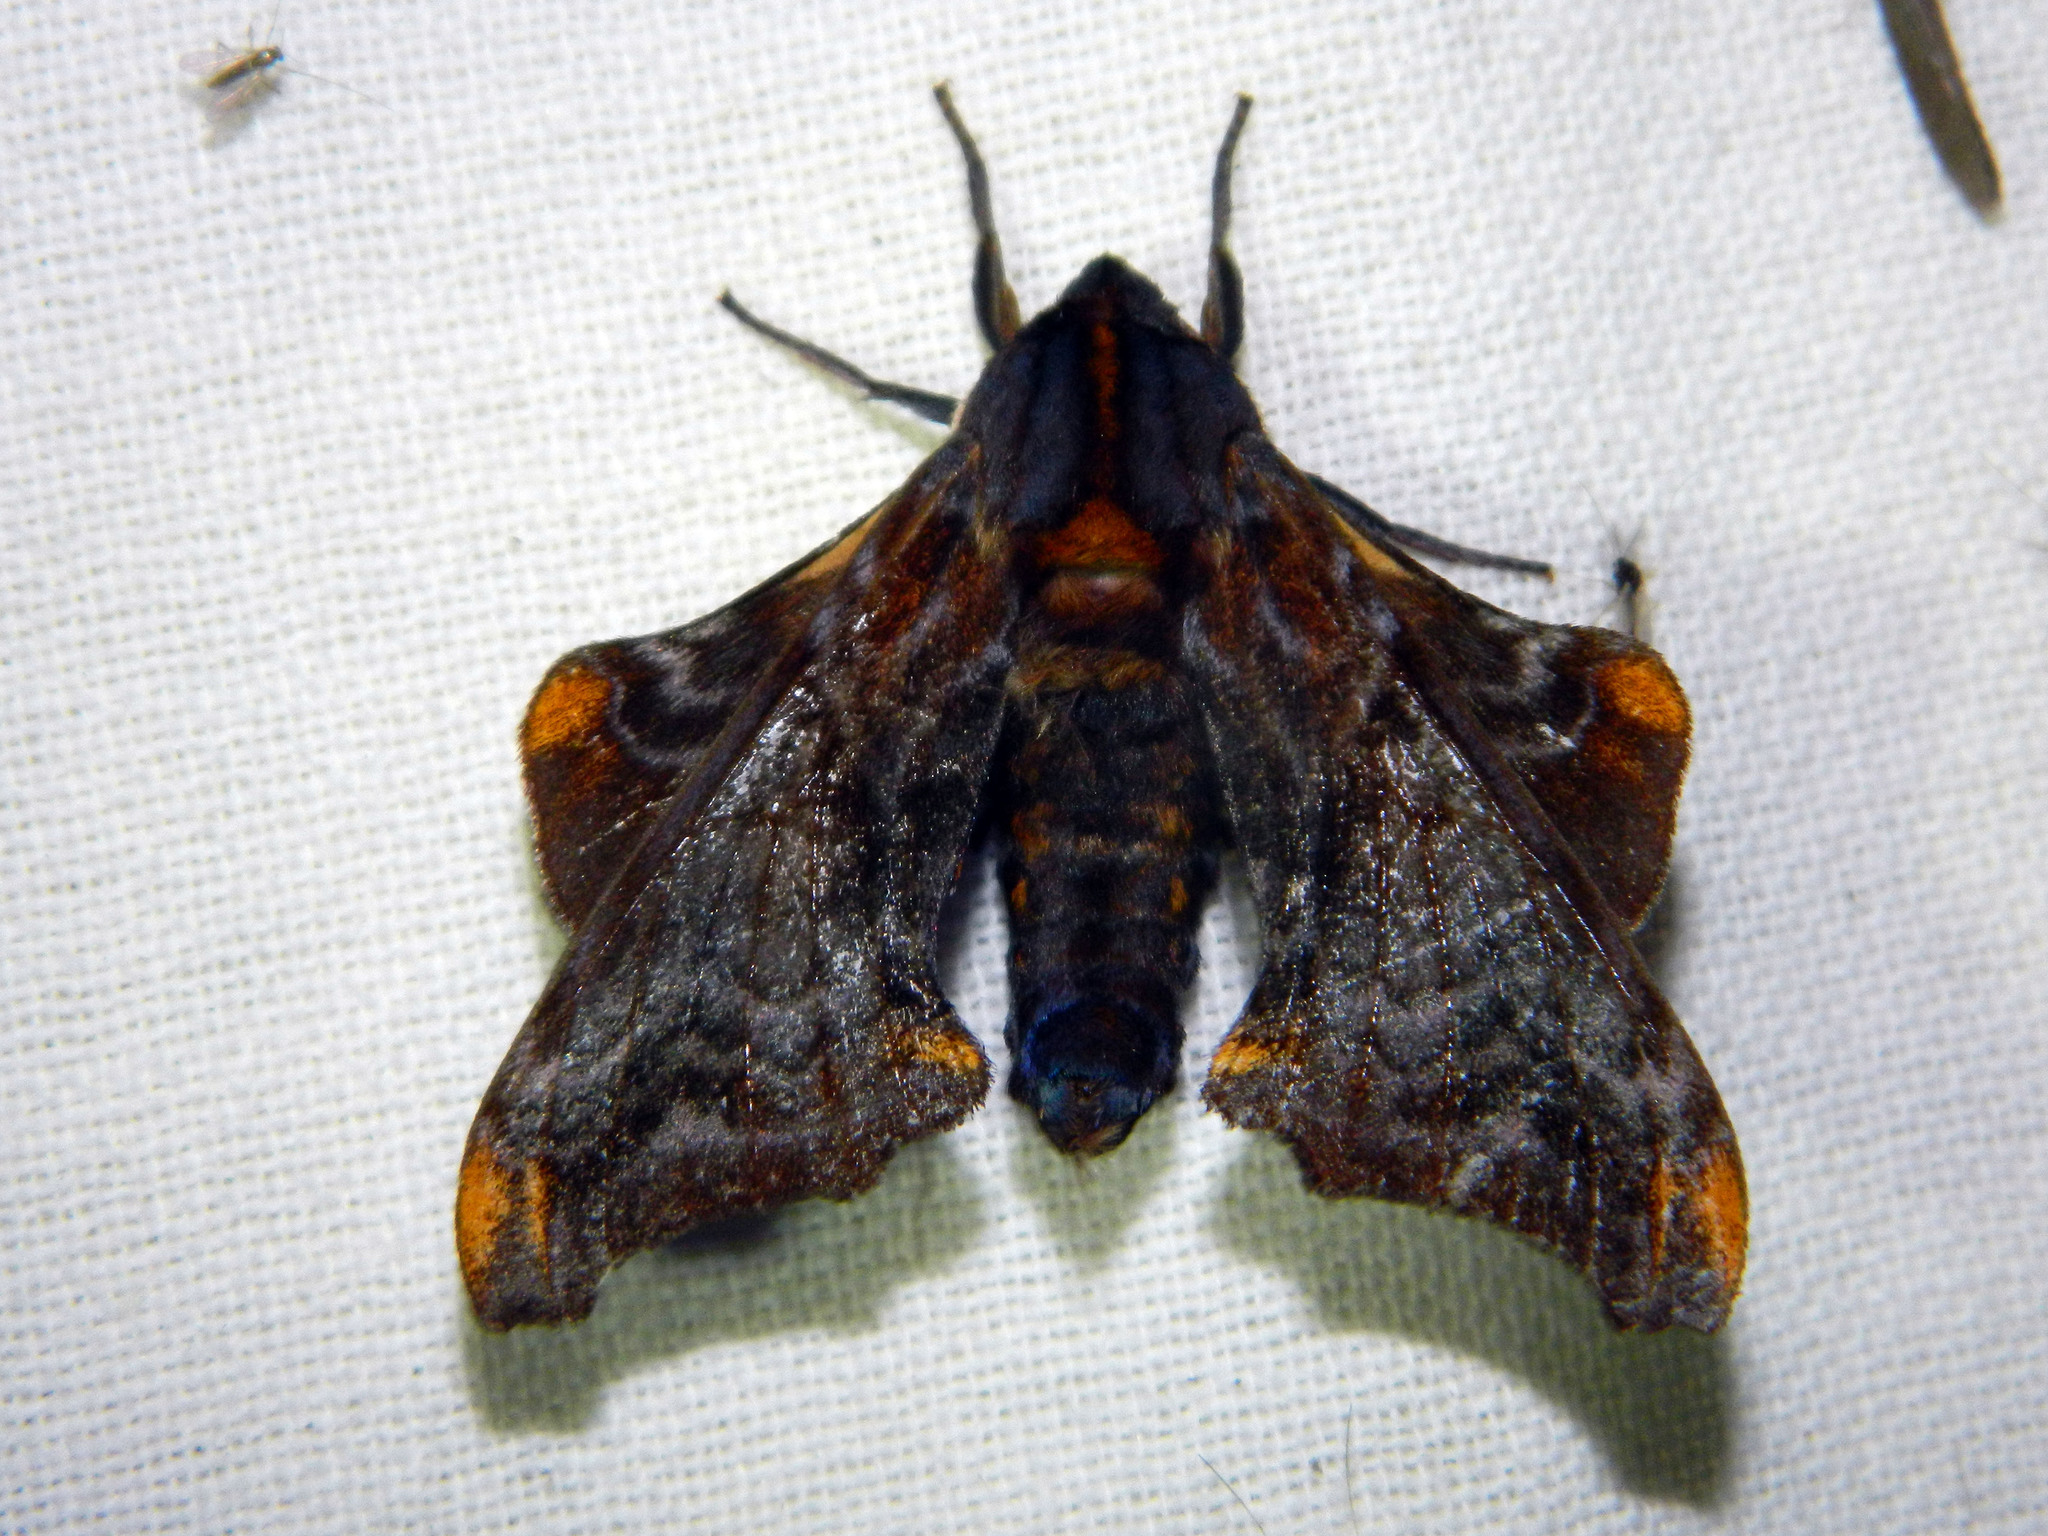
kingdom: Animalia
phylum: Arthropoda
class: Insecta
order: Lepidoptera
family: Sphingidae
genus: Paonias
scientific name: Paonias myops
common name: Small-eyed sphinx
